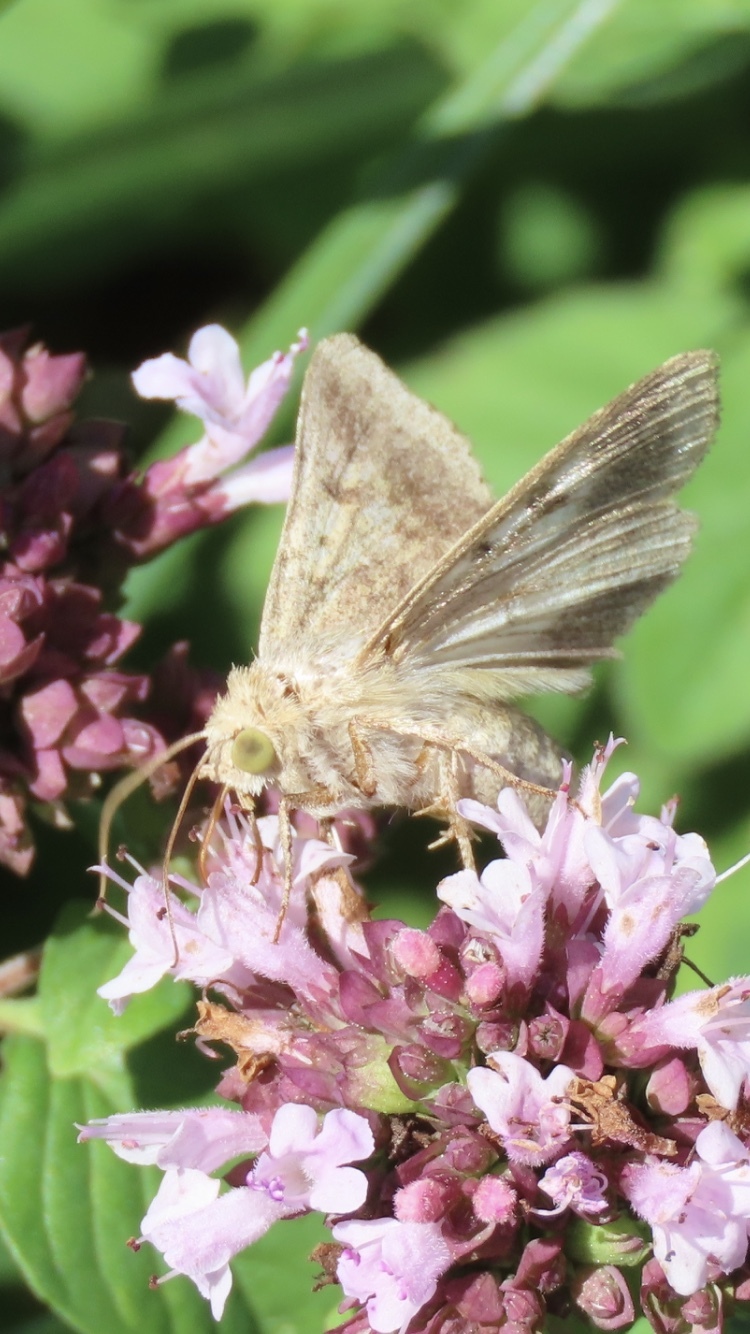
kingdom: Animalia
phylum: Arthropoda
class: Insecta
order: Lepidoptera
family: Noctuidae
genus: Helicoverpa
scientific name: Helicoverpa armigera
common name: Cotton bollworm
